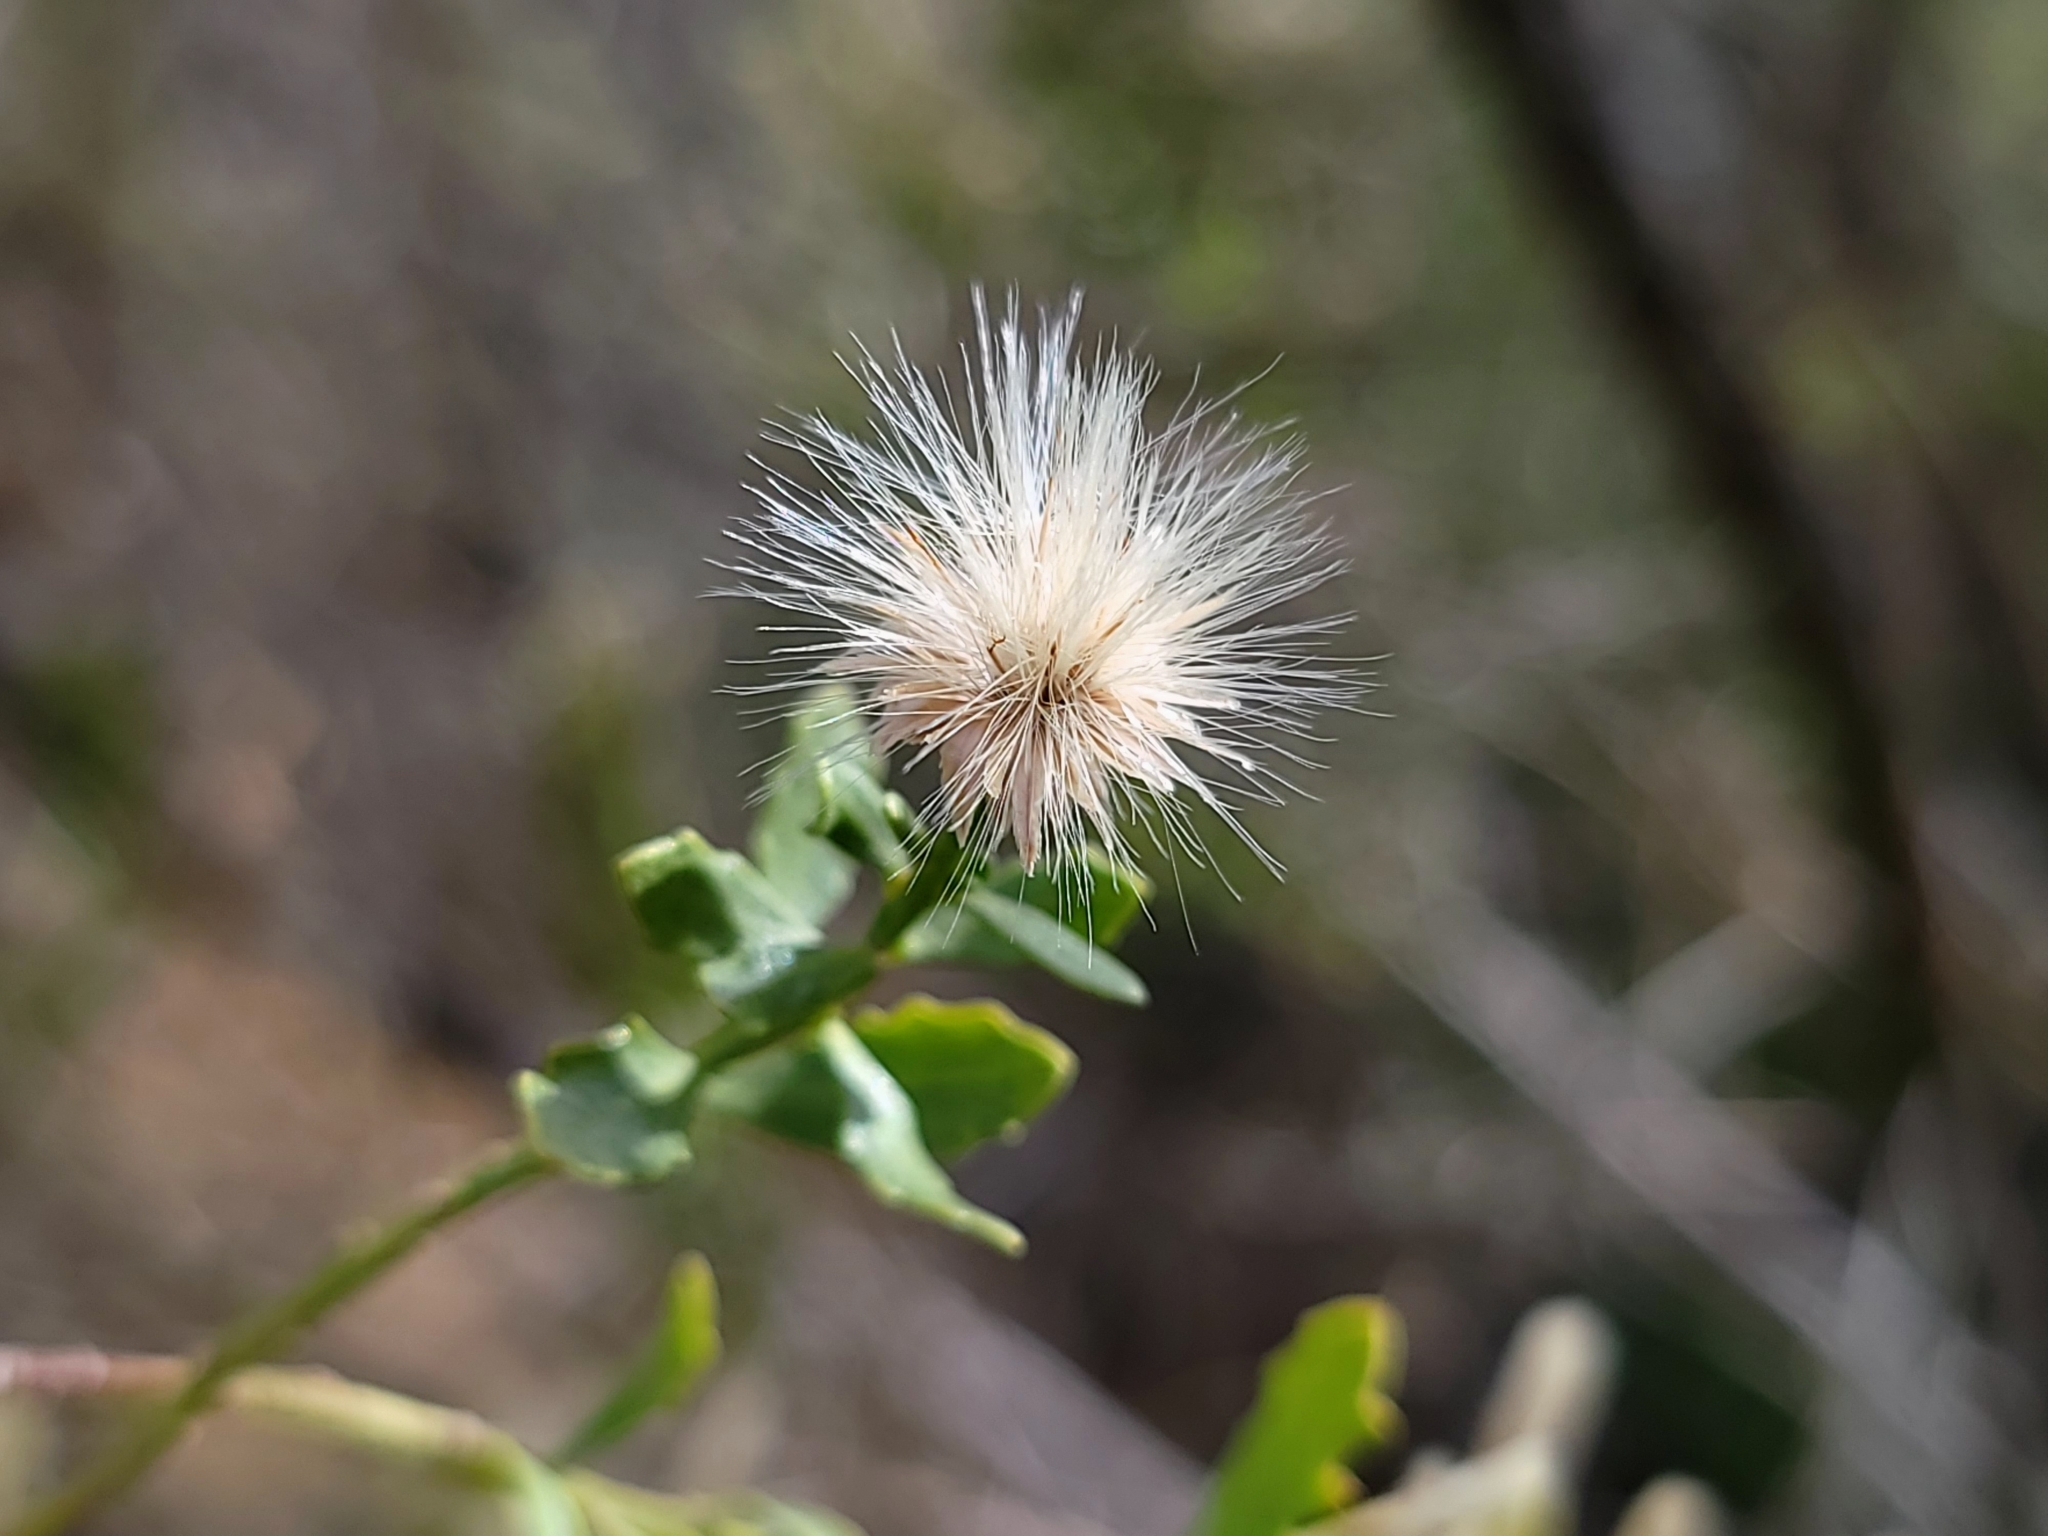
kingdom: Plantae
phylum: Tracheophyta
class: Magnoliopsida
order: Asterales
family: Asteraceae
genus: Baccharis
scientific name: Baccharis pilularis
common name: Coyotebrush
